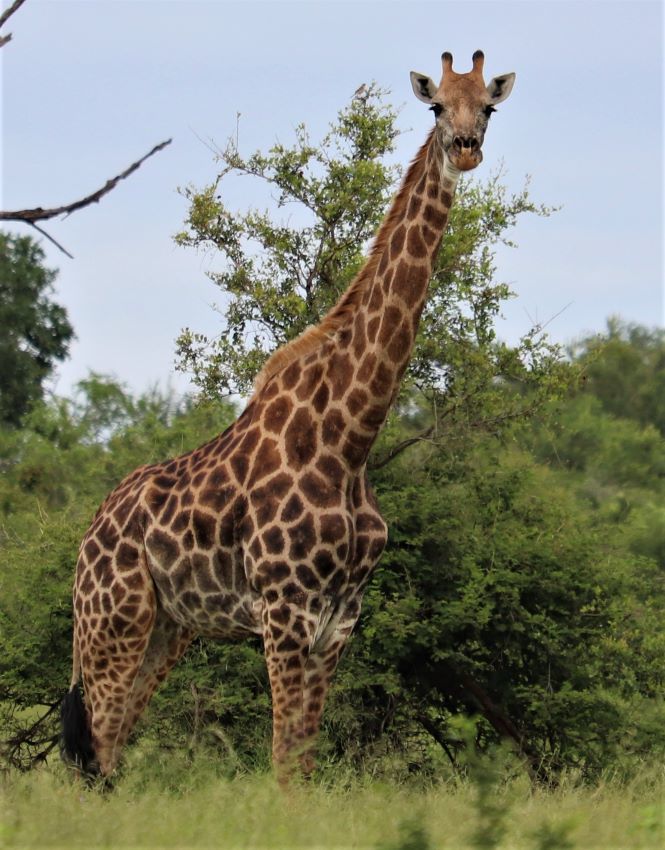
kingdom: Animalia
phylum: Chordata
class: Mammalia
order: Artiodactyla
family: Giraffidae
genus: Giraffa
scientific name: Giraffa giraffa
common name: Southern giraffe
